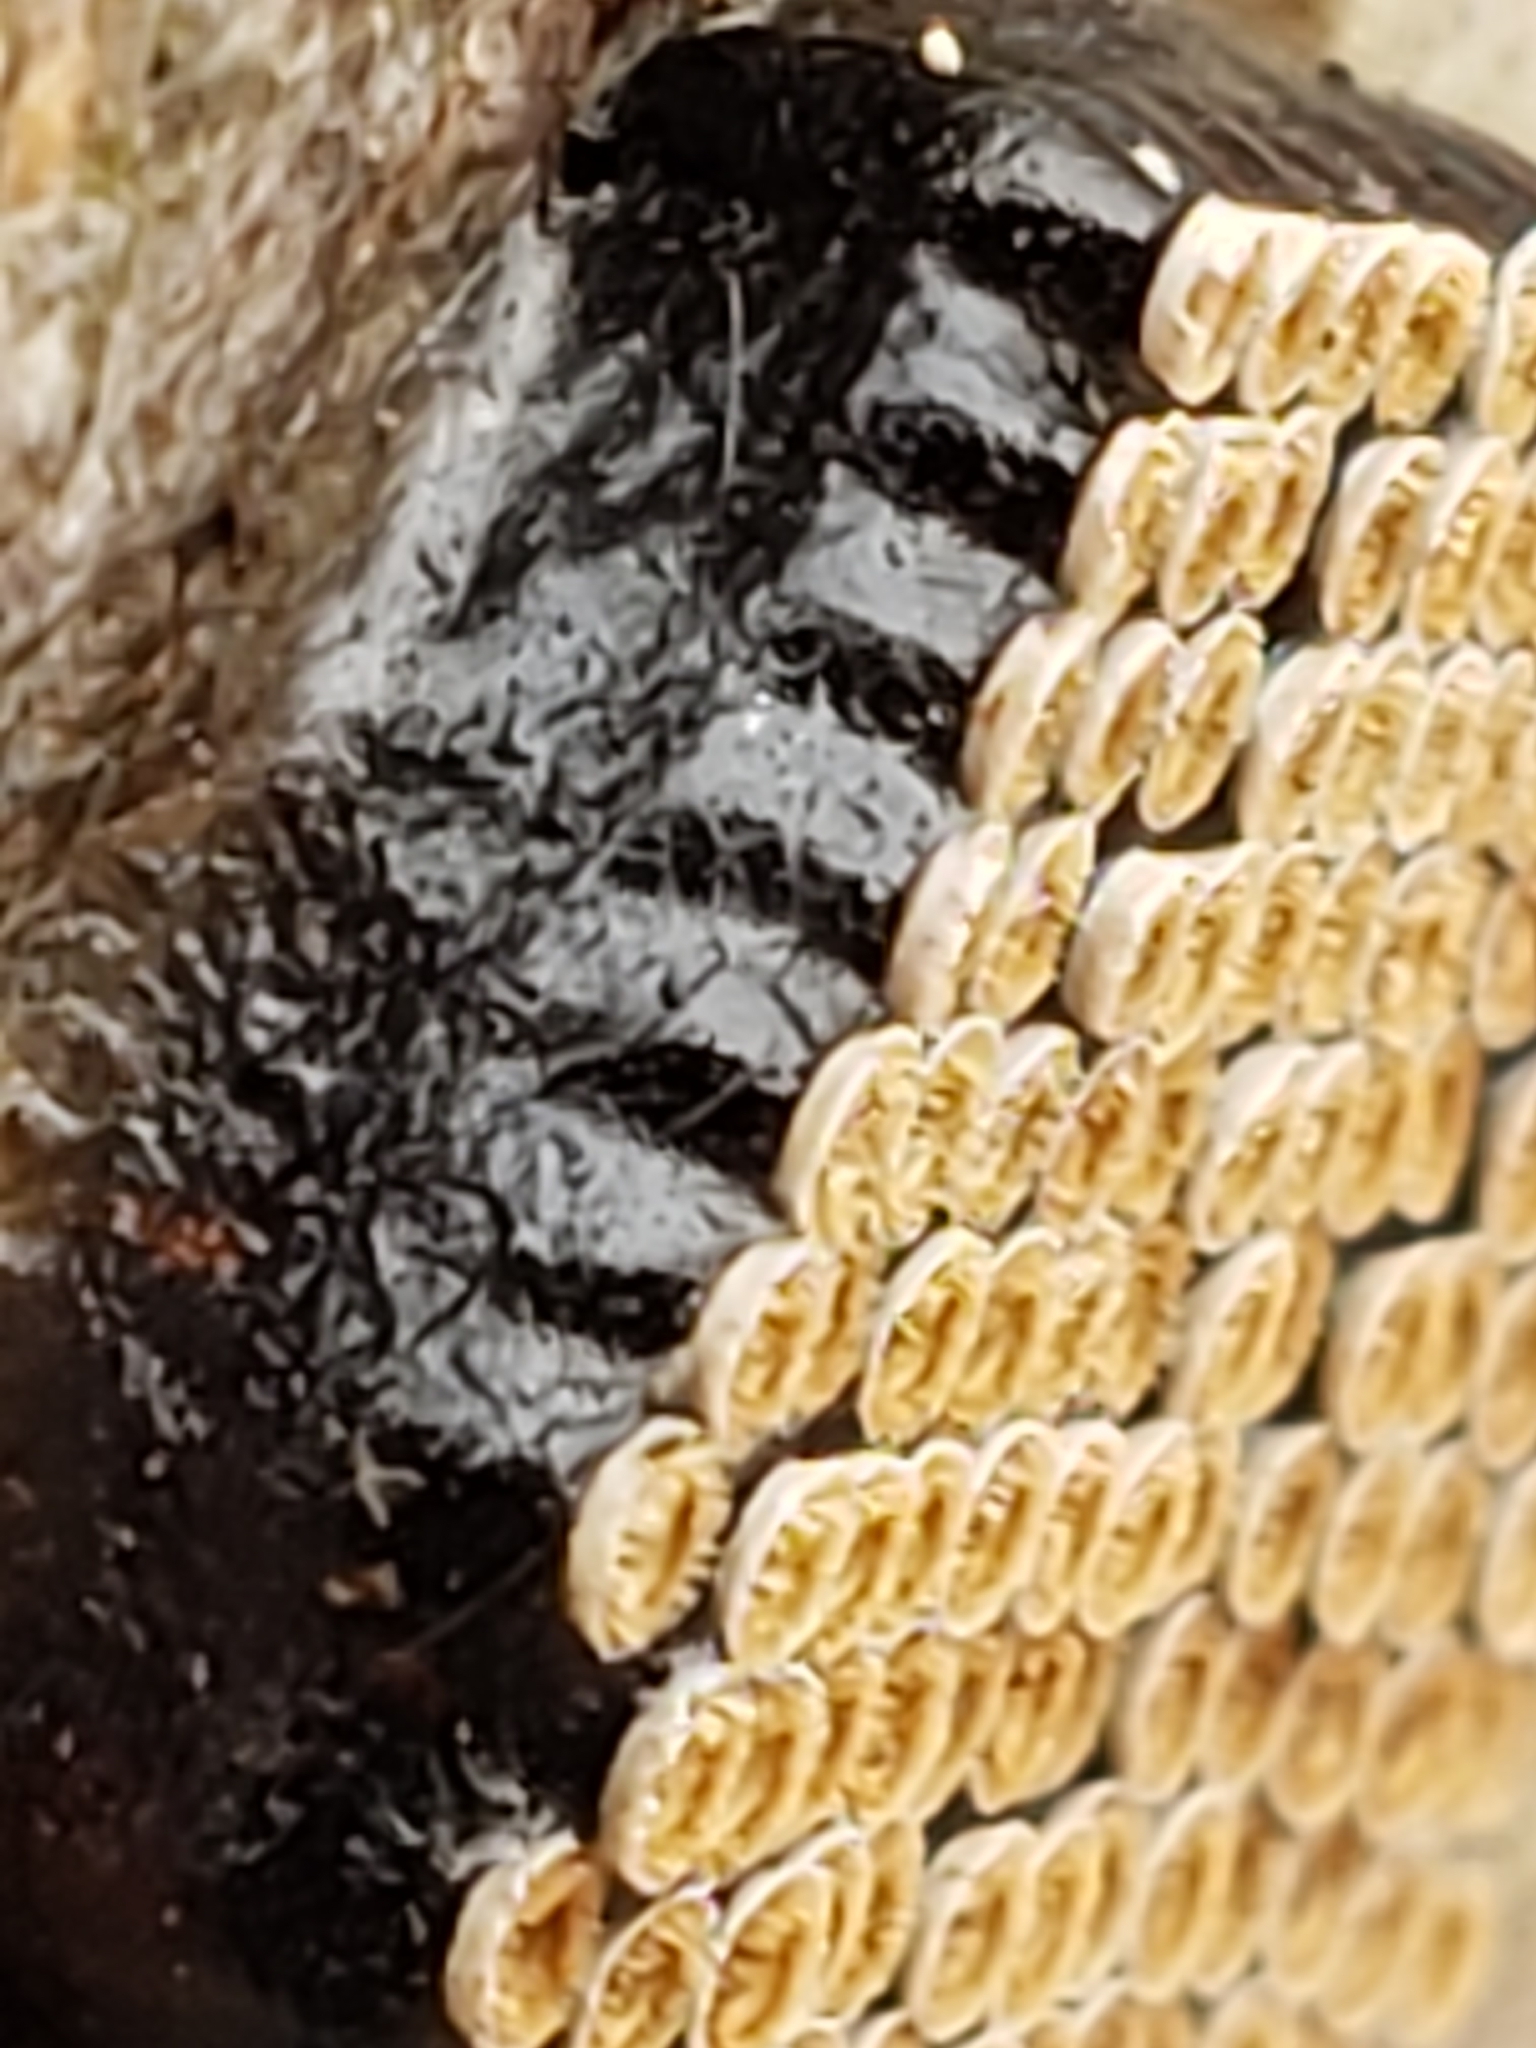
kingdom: Animalia
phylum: Arthropoda
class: Insecta
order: Hemiptera
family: Reduviidae
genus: Arilus
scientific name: Arilus cristatus
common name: North american wheel bug
